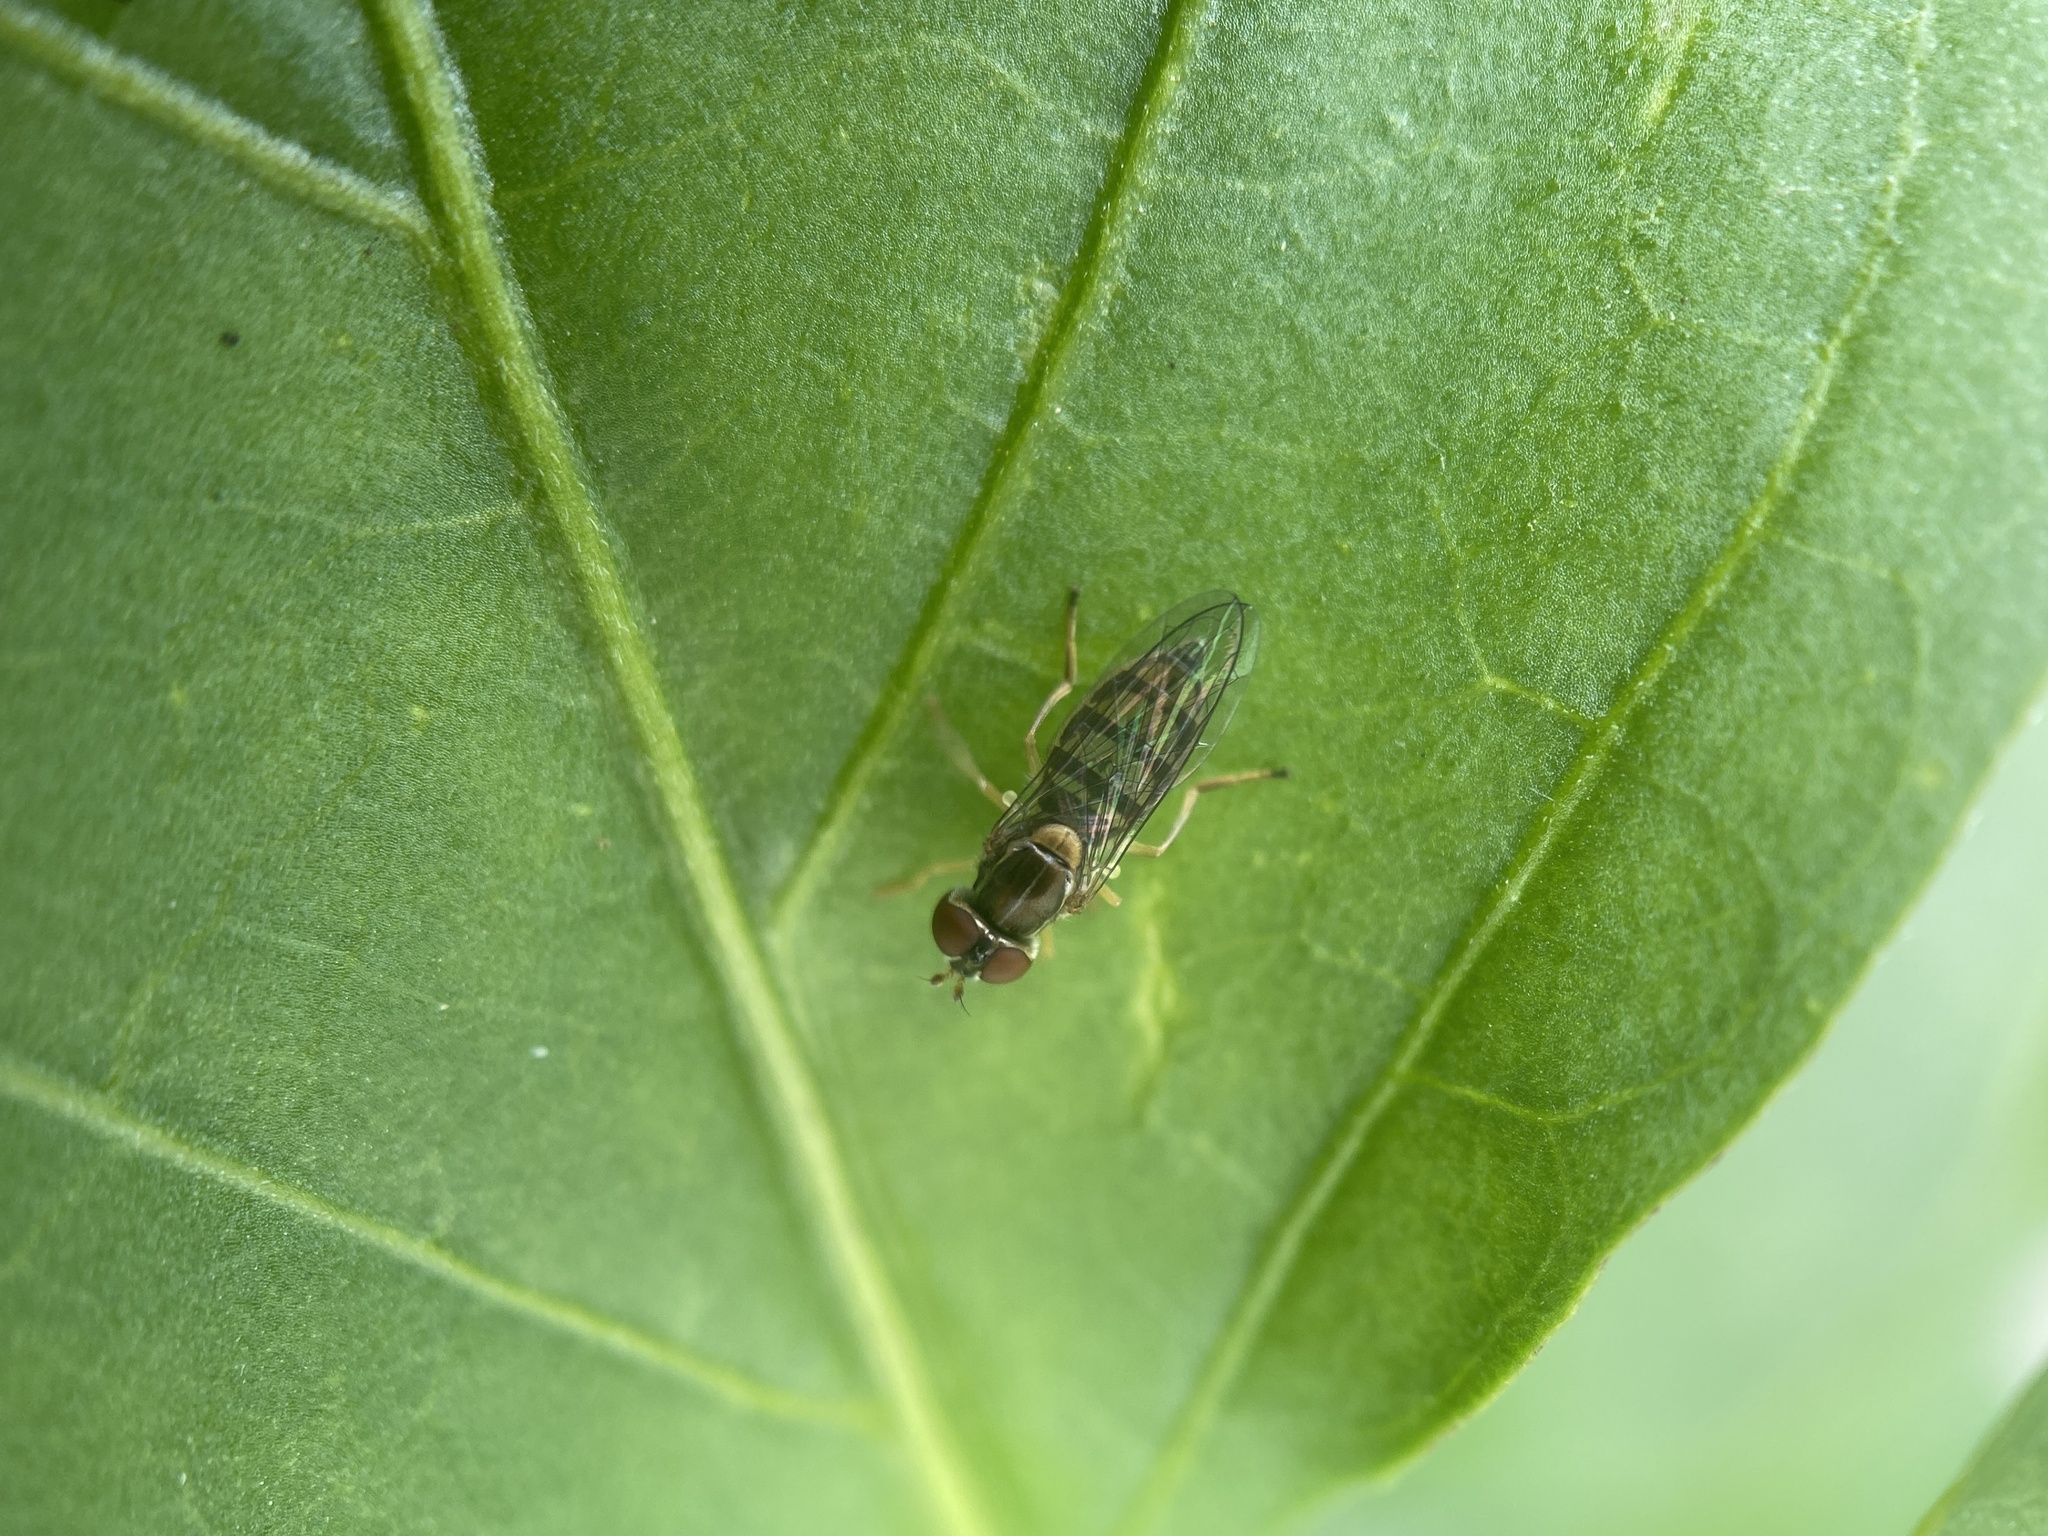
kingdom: Animalia
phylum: Arthropoda
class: Insecta
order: Diptera
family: Syrphidae
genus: Toxomerus
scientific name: Toxomerus marginatus
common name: Syrphid fly
